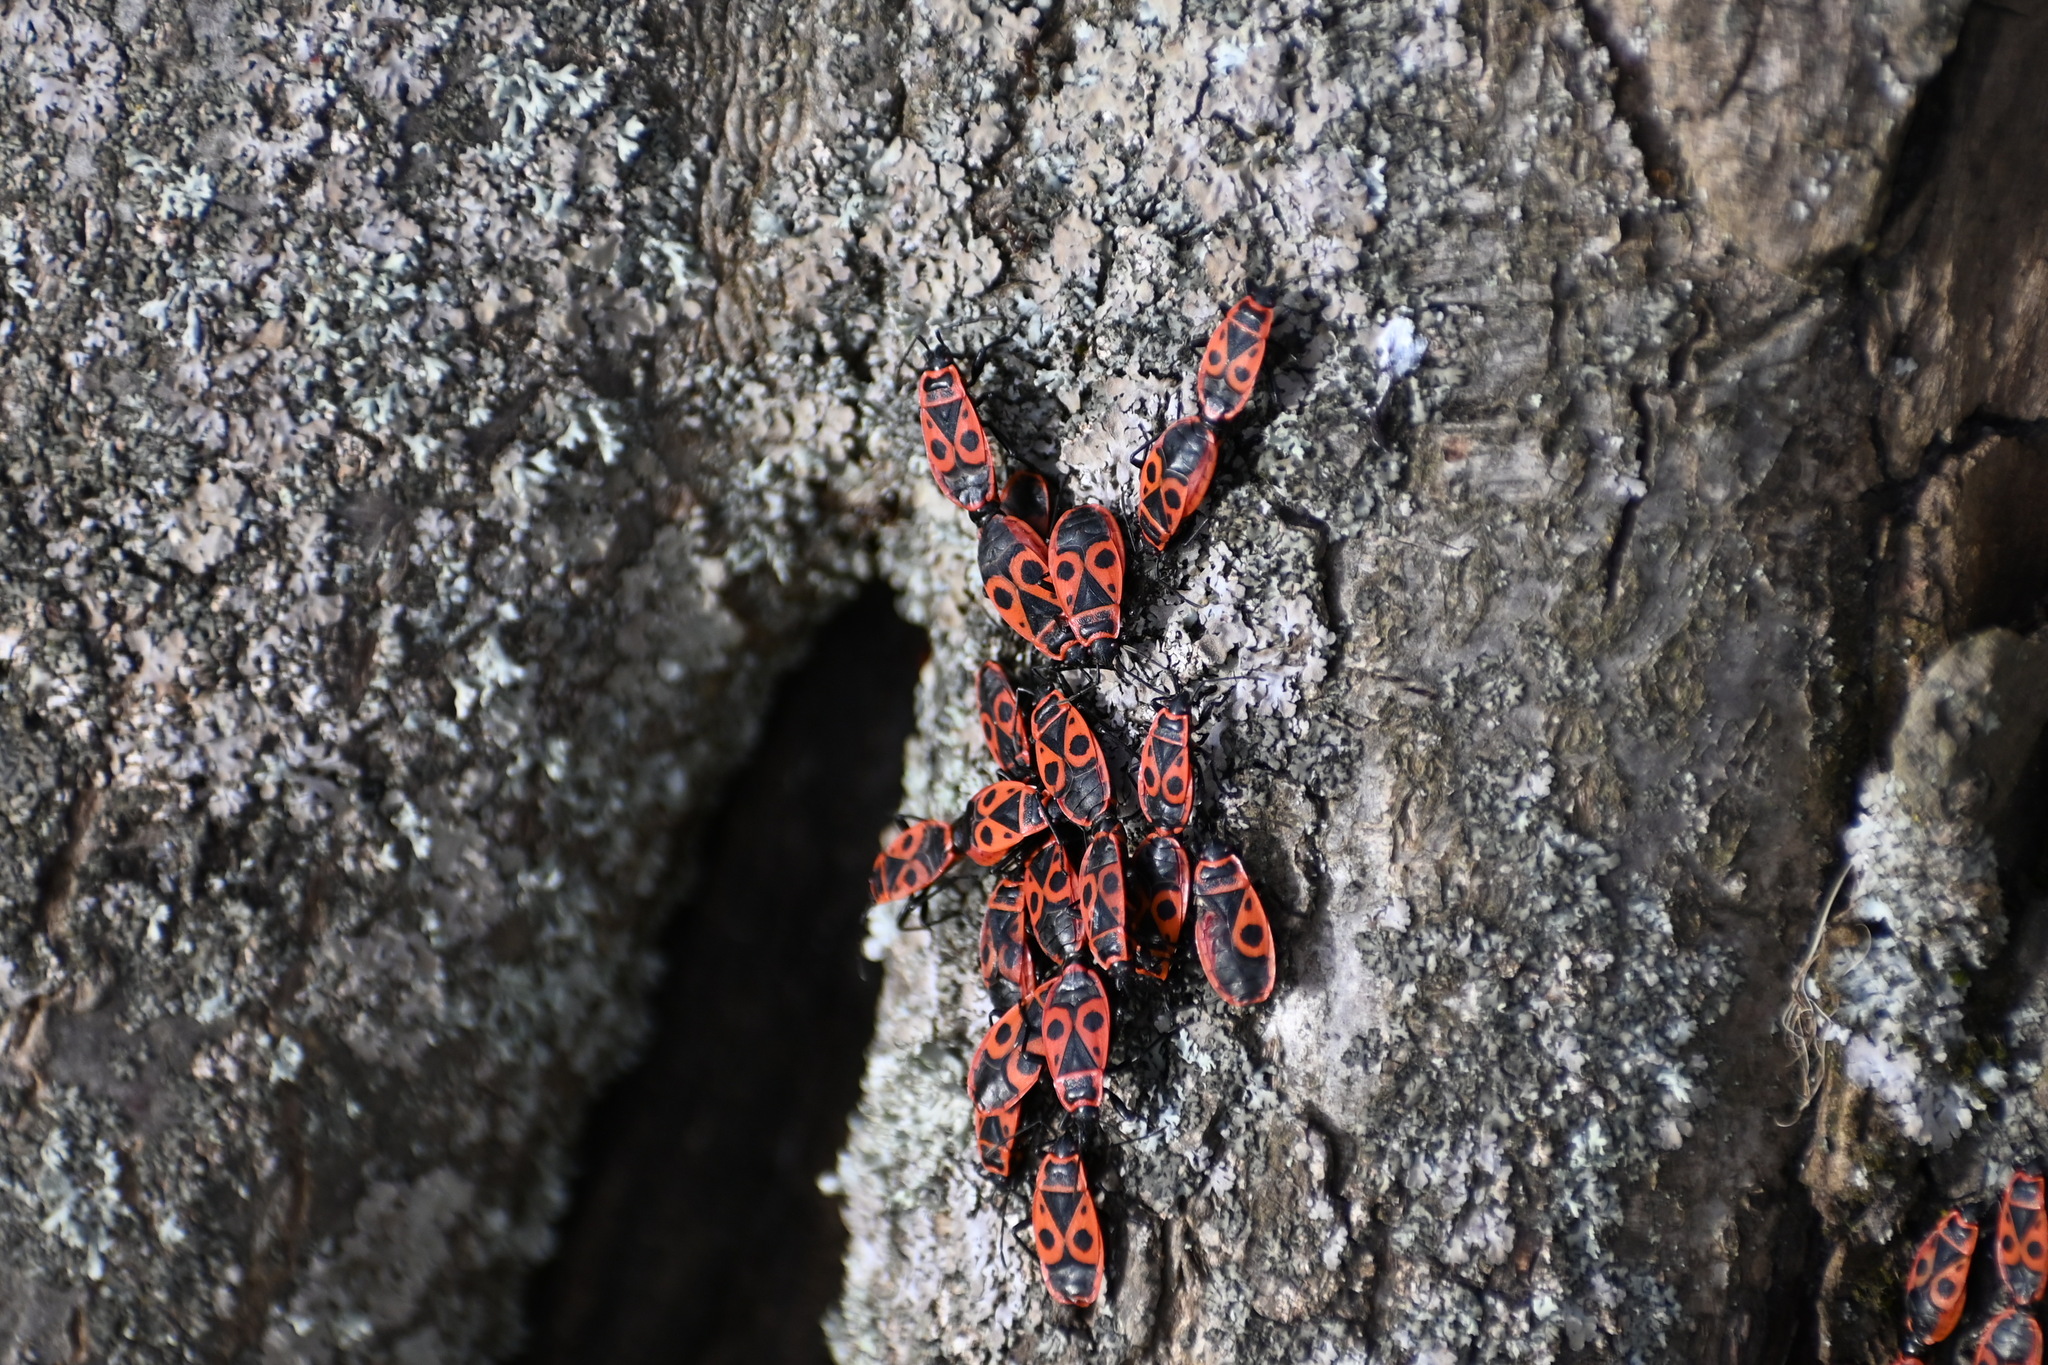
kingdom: Animalia
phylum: Arthropoda
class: Insecta
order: Hemiptera
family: Pyrrhocoridae
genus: Pyrrhocoris
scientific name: Pyrrhocoris apterus
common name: Firebug
